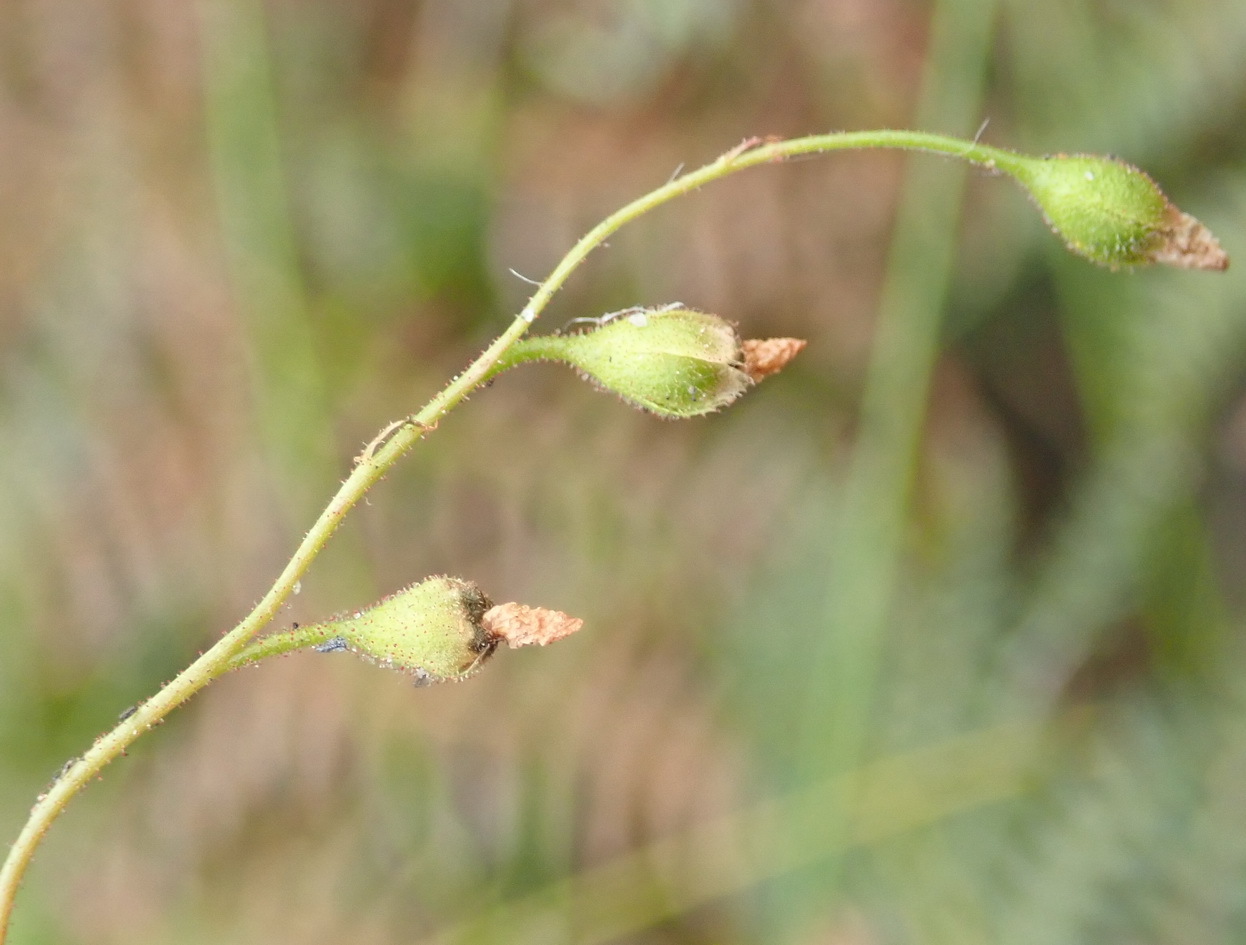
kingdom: Plantae
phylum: Tracheophyta
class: Magnoliopsida
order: Caryophyllales
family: Droseraceae
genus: Drosera
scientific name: Drosera natalensis
